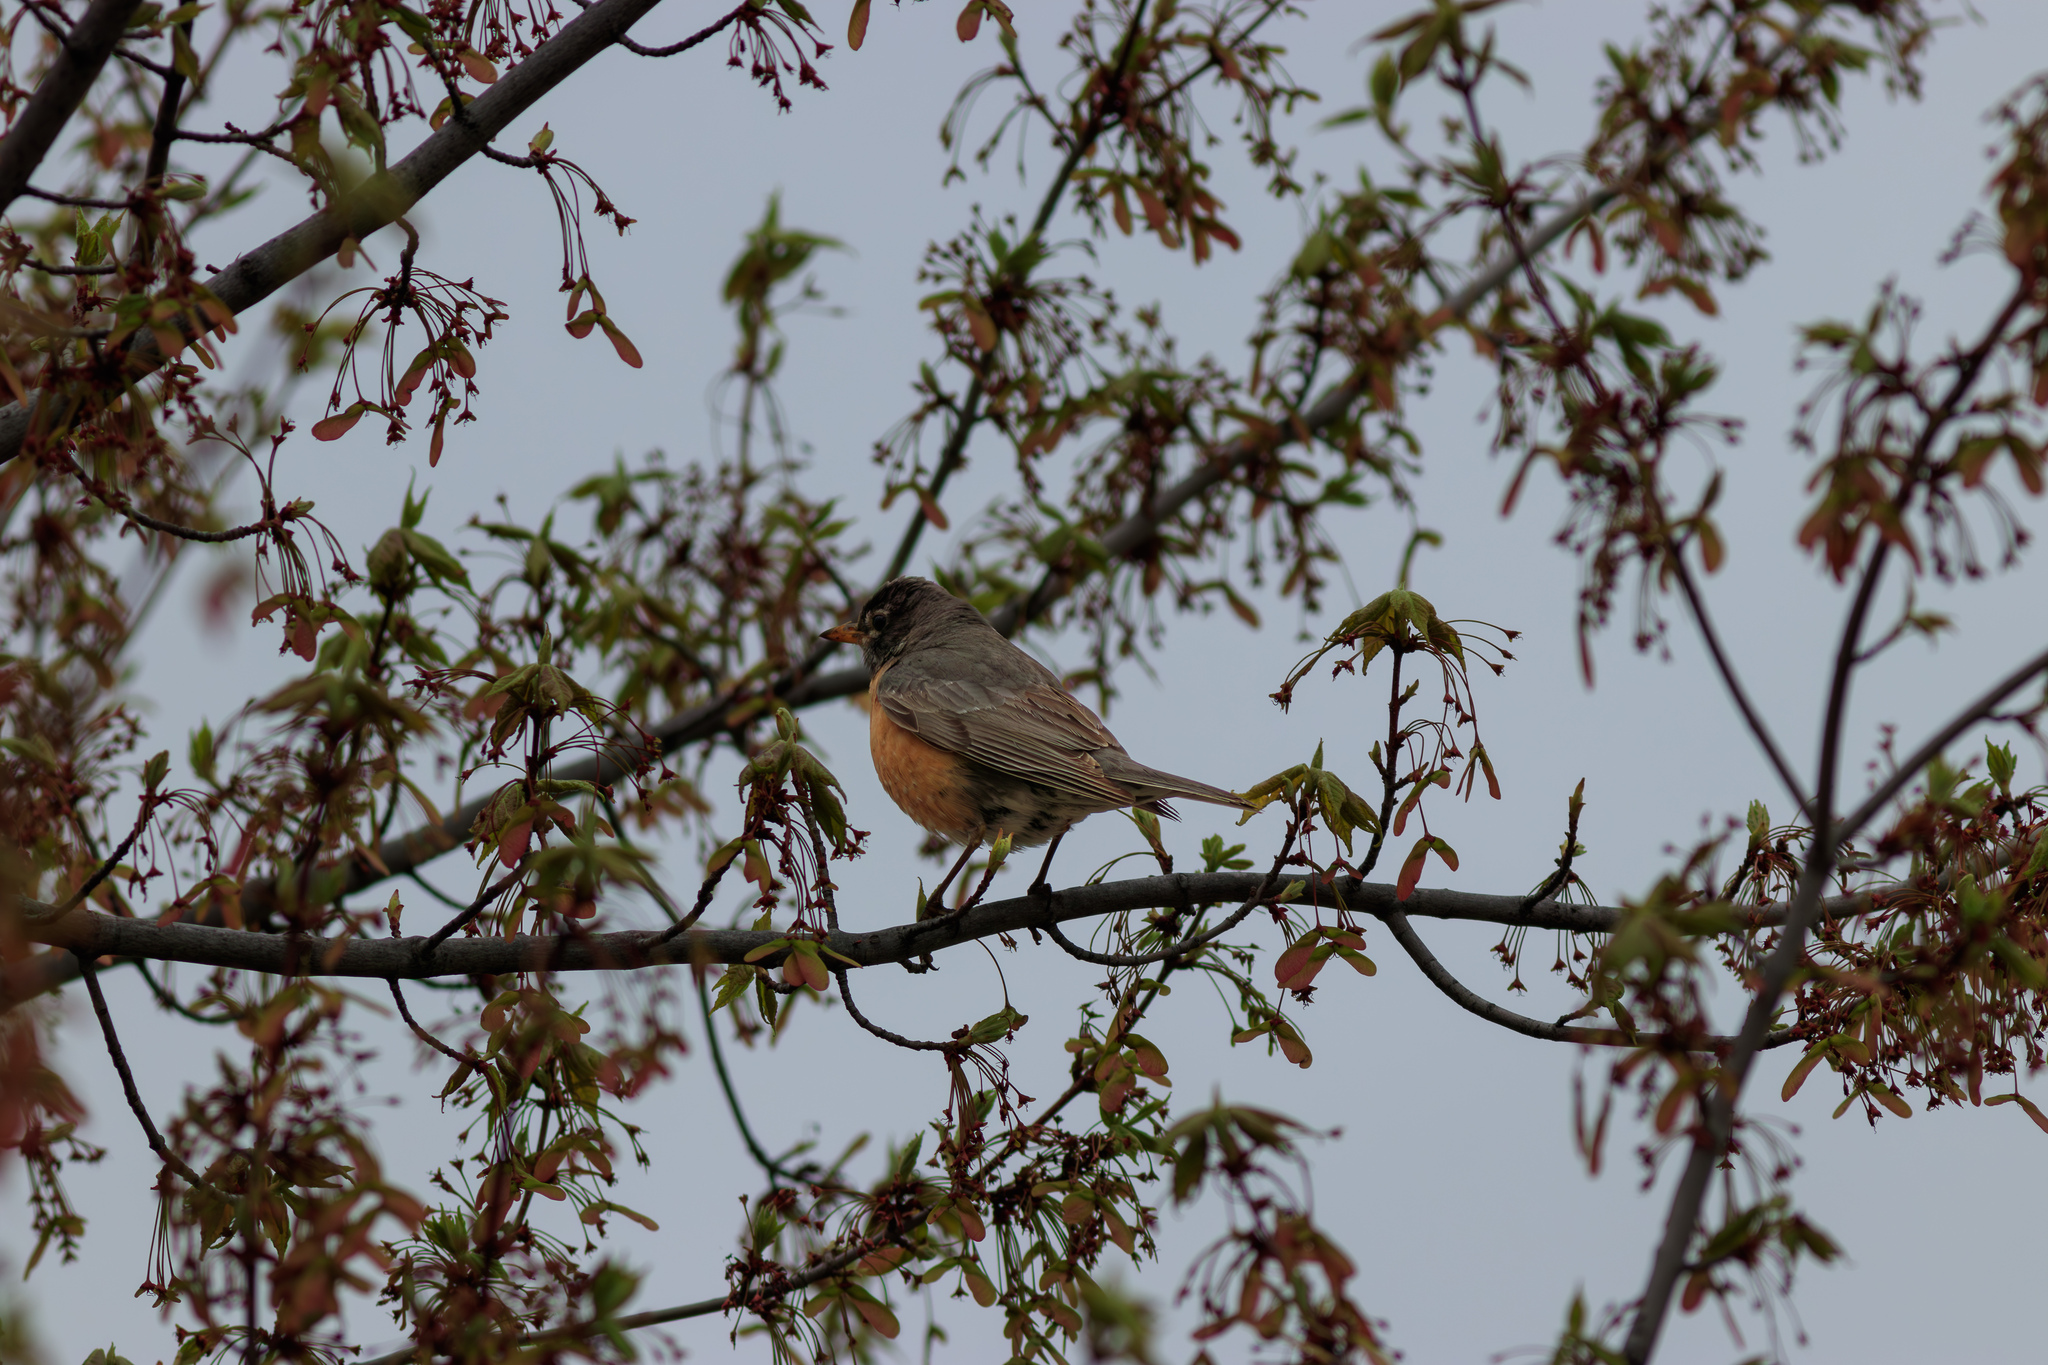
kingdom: Animalia
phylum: Chordata
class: Aves
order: Passeriformes
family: Turdidae
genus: Turdus
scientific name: Turdus migratorius
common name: American robin
